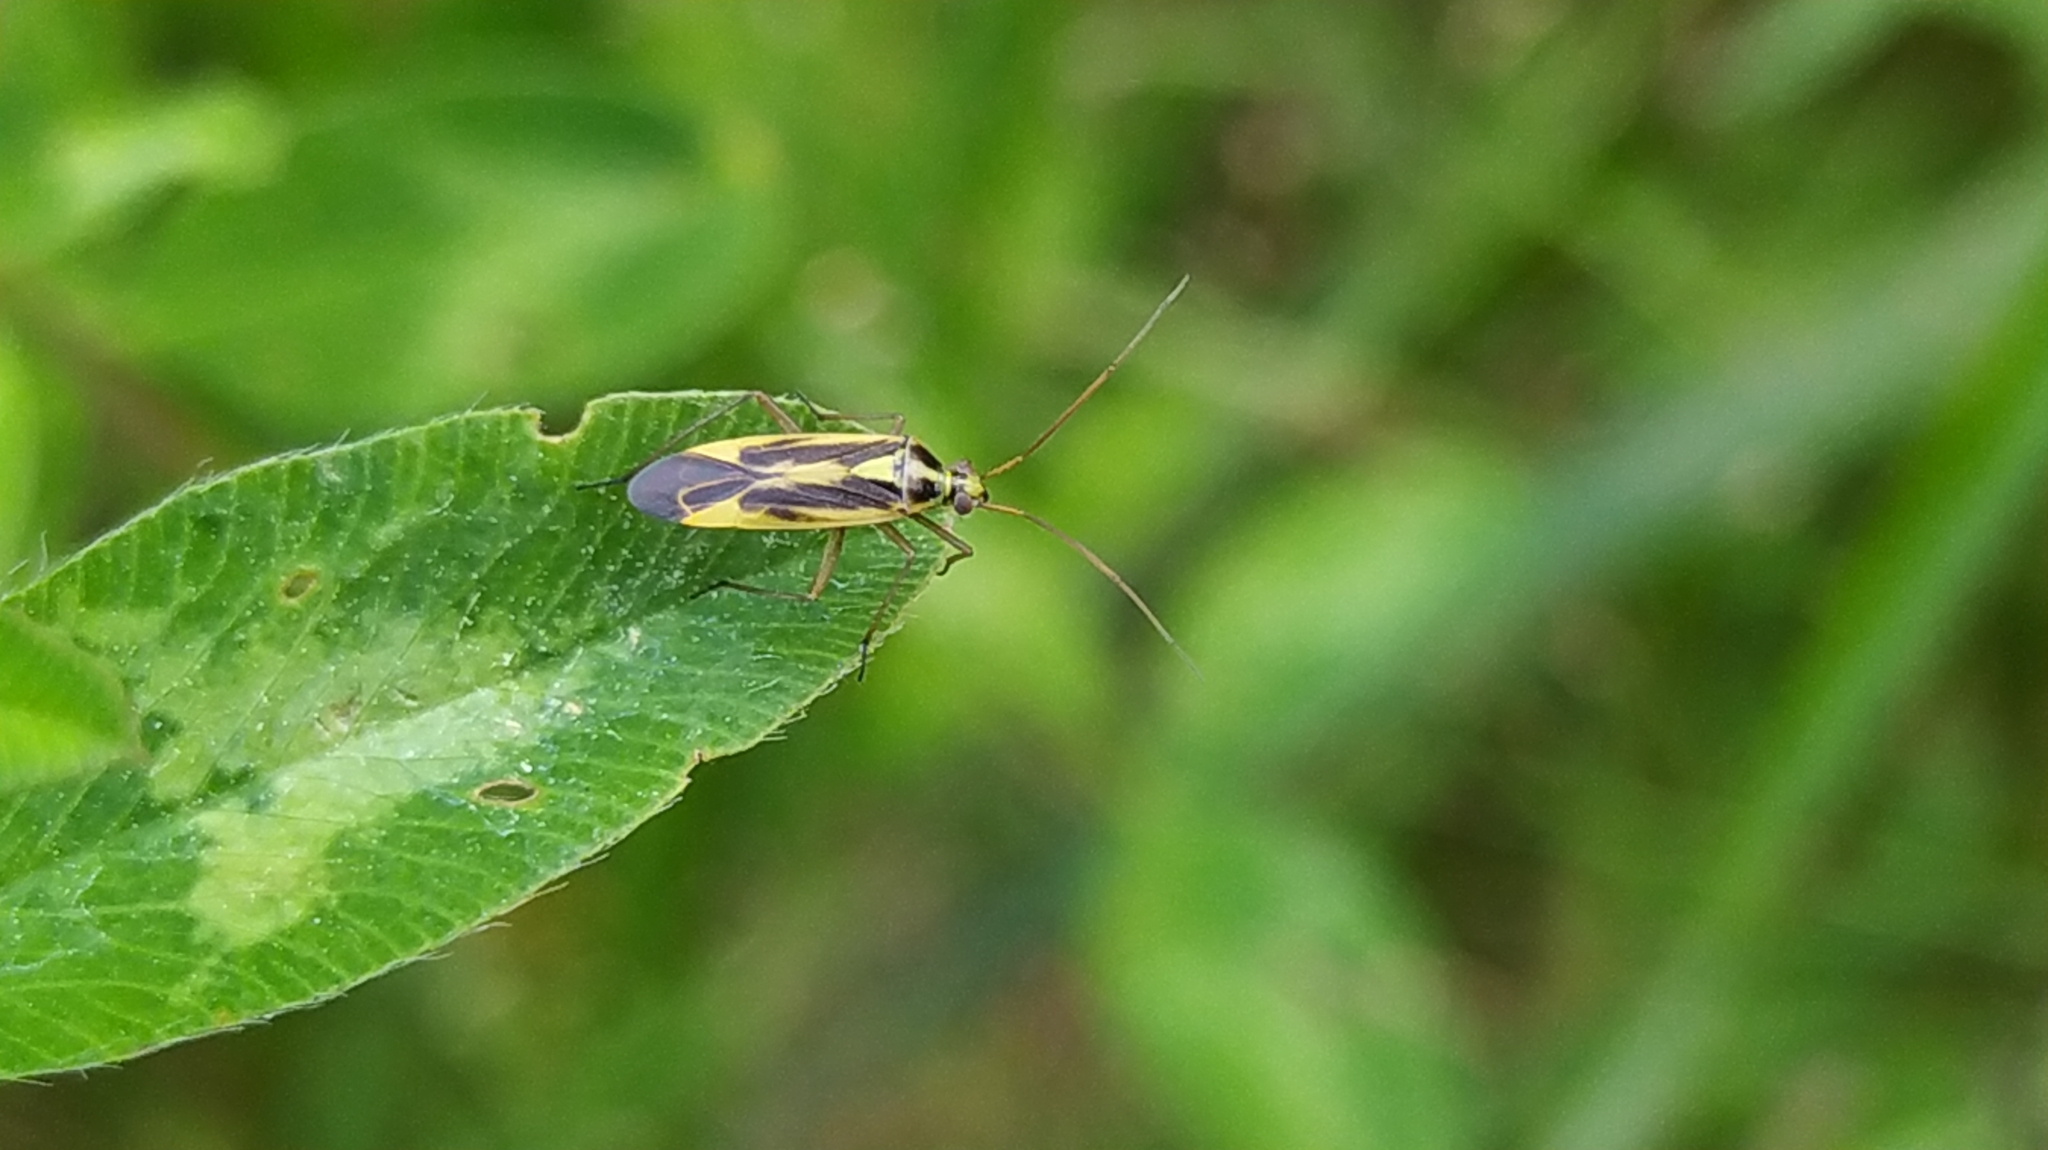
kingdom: Animalia
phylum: Arthropoda
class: Insecta
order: Hemiptera
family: Miridae
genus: Stenotus
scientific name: Stenotus binotatus
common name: Plant bug
